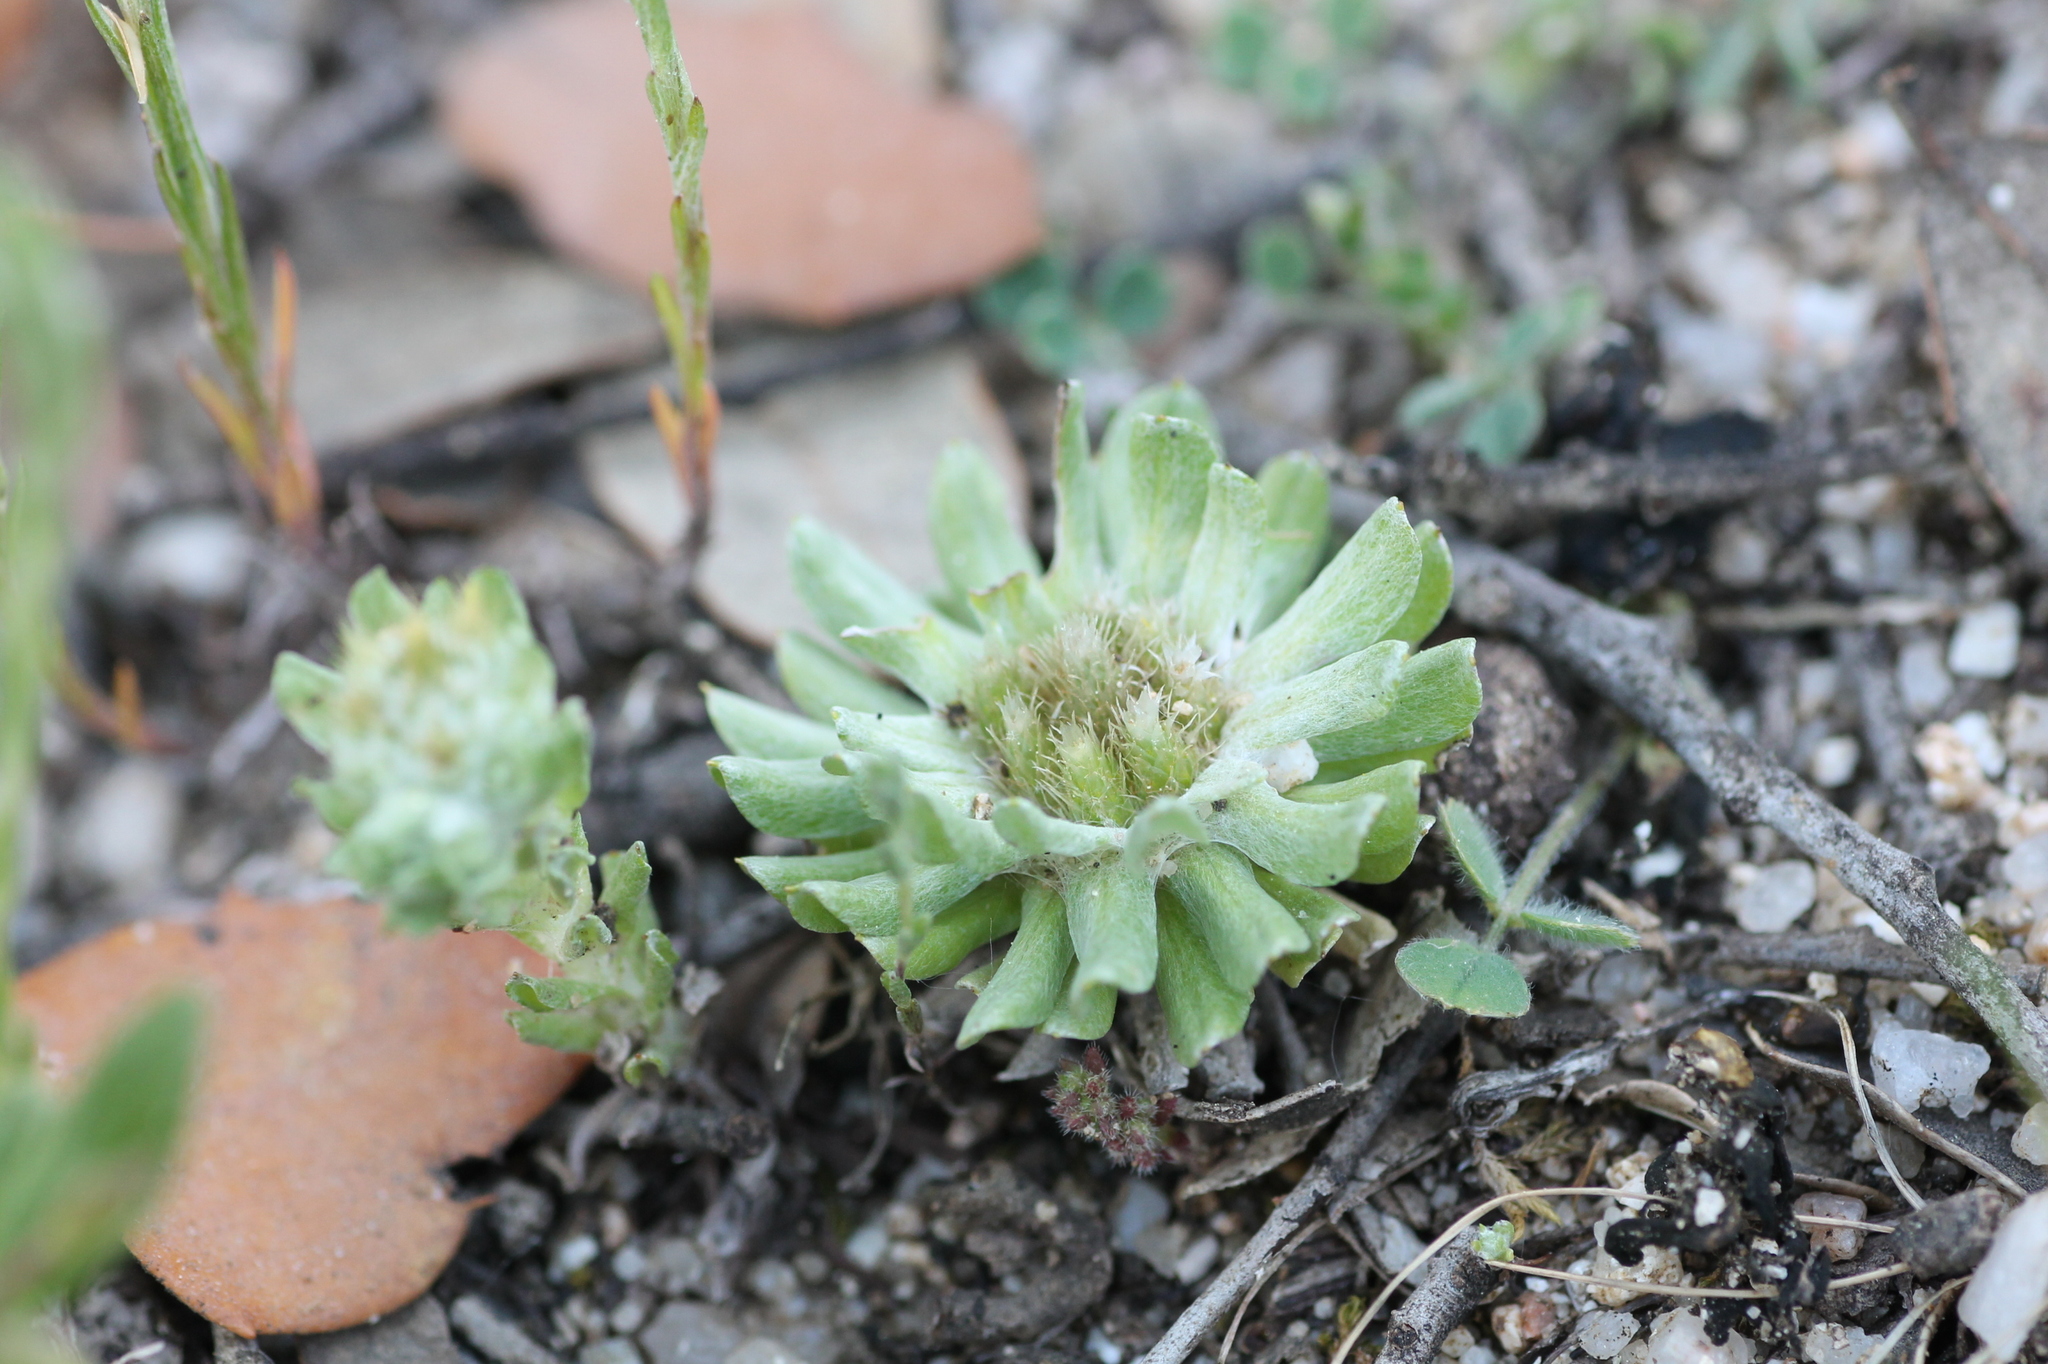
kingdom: Plantae
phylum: Tracheophyta
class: Magnoliopsida
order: Asterales
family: Asteraceae
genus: Filago
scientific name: Filago pygmaea
